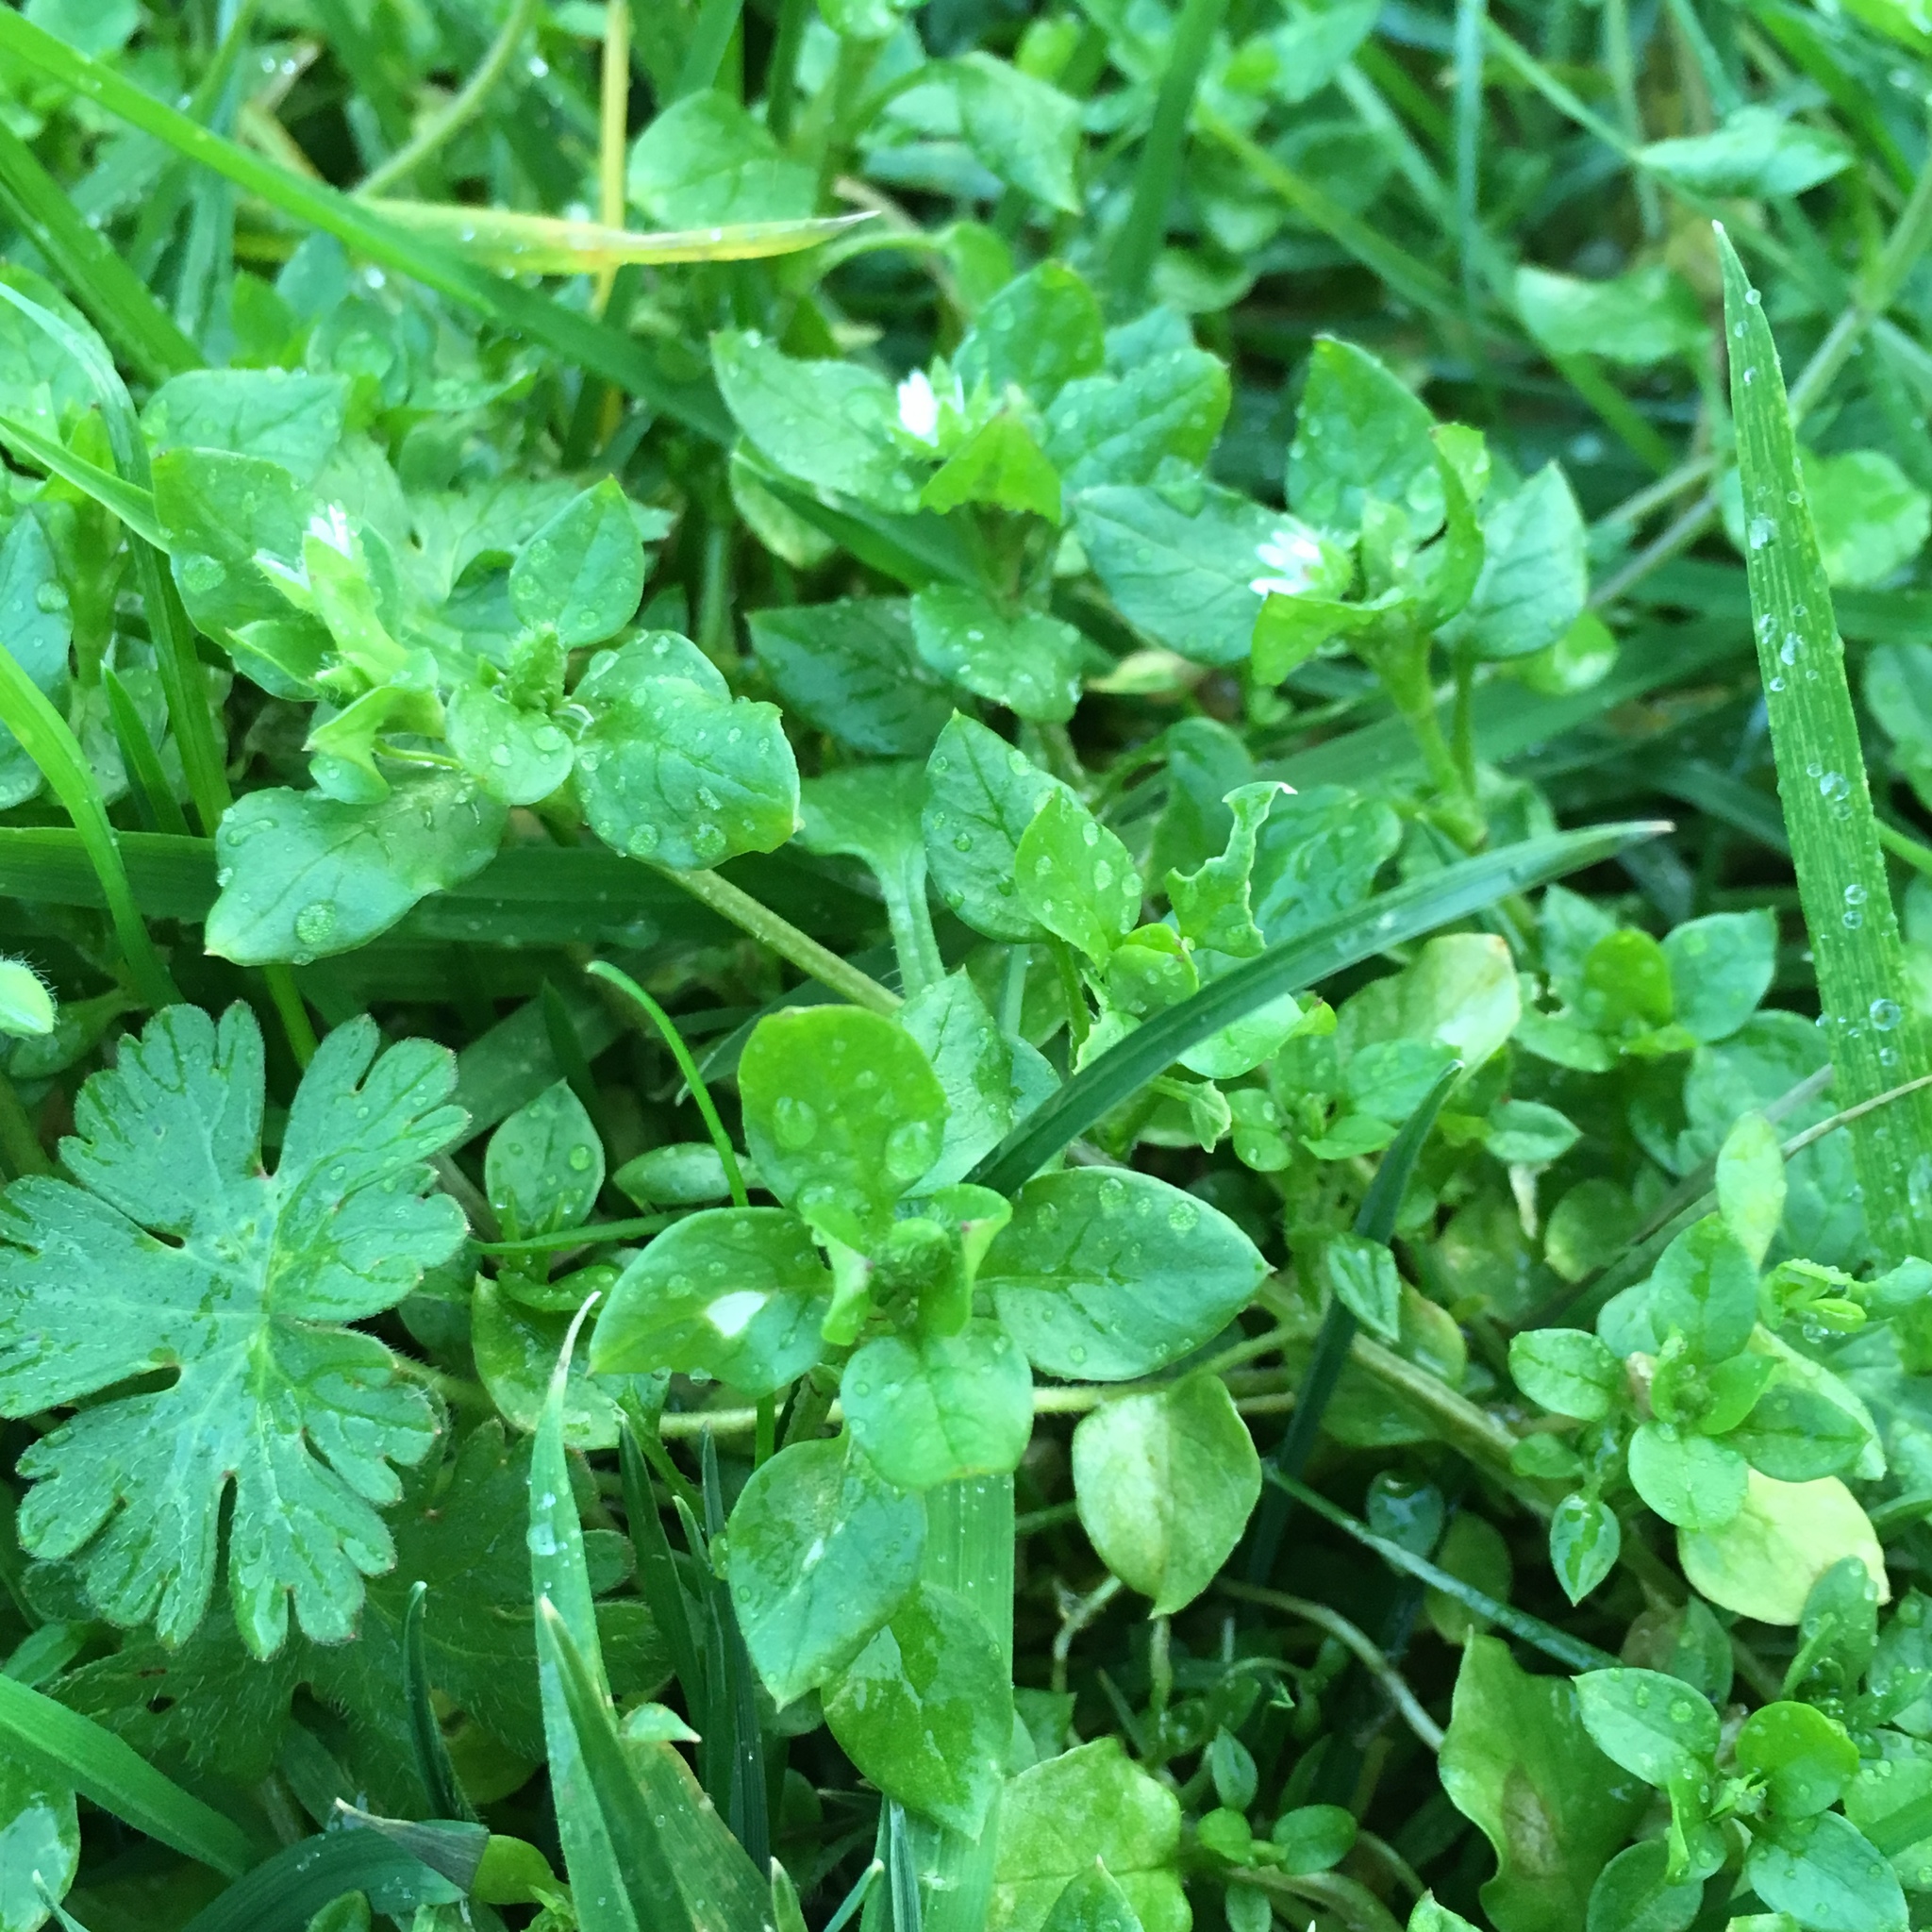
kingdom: Plantae
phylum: Tracheophyta
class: Magnoliopsida
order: Caryophyllales
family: Caryophyllaceae
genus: Stellaria
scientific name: Stellaria media
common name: Common chickweed
